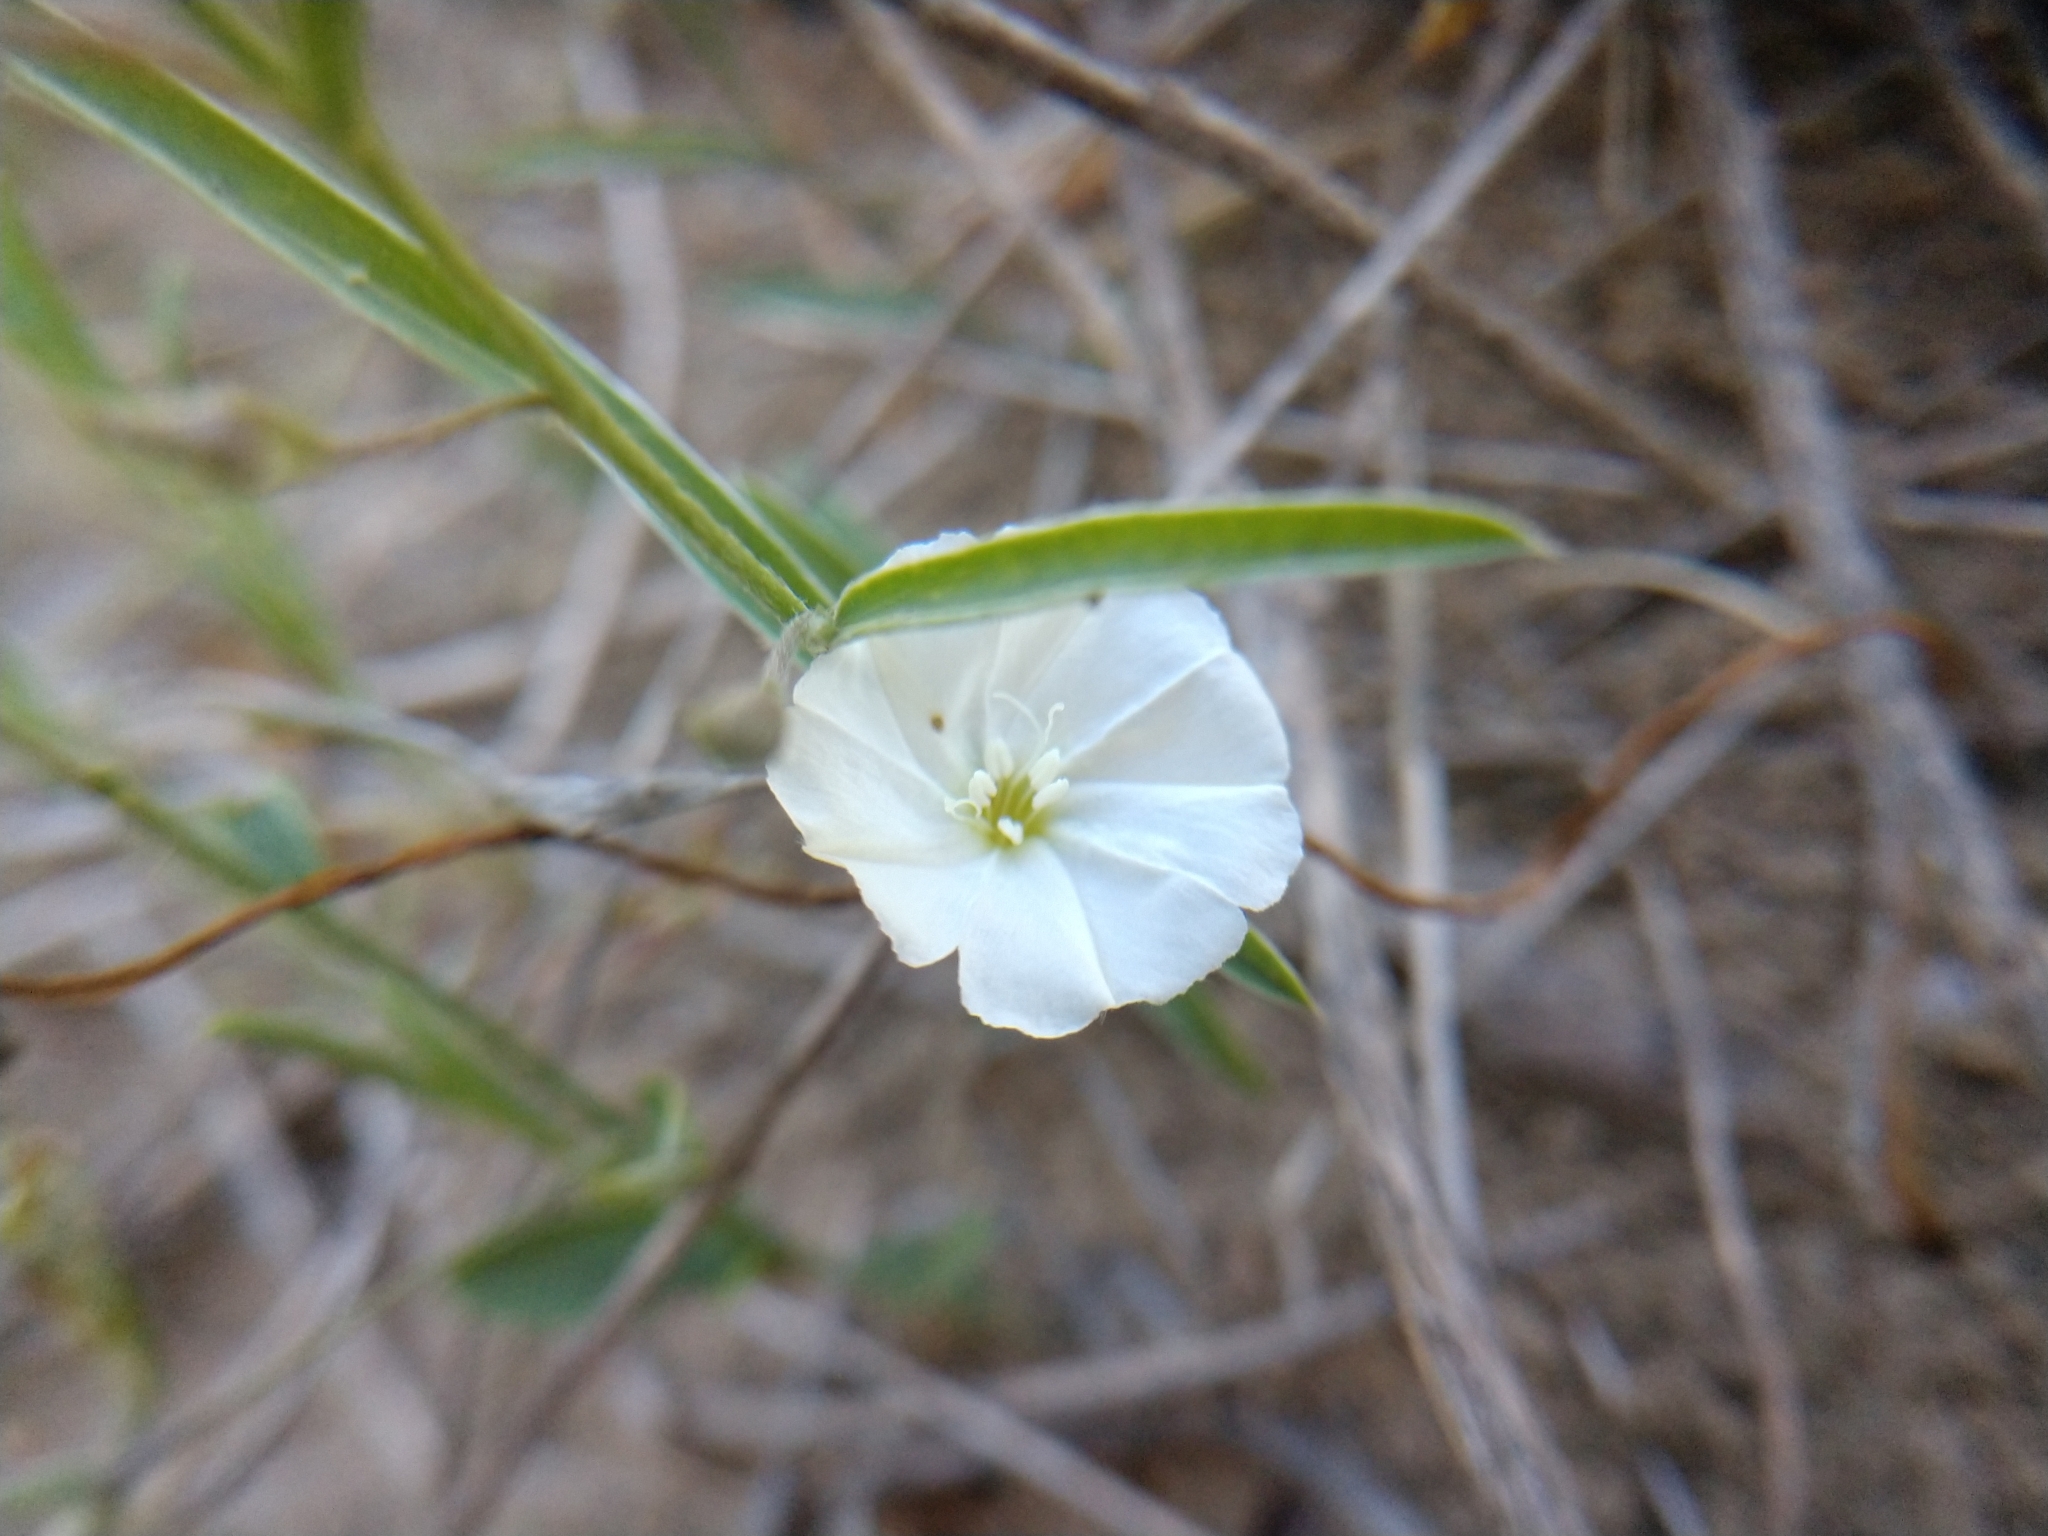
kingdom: Plantae
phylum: Tracheophyta
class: Magnoliopsida
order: Solanales
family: Convolvulaceae
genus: Evolvulus
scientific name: Evolvulus sericeus
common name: Blue dots
